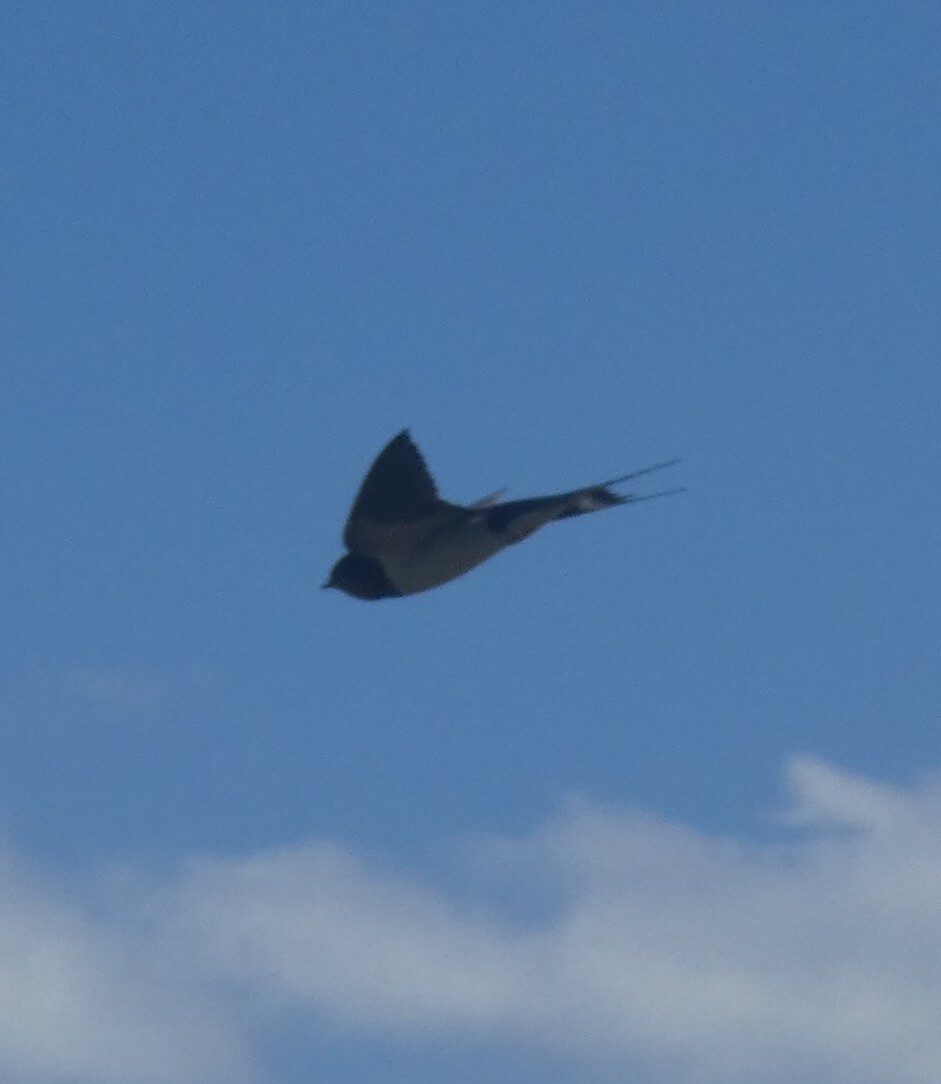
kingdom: Animalia
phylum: Chordata
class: Aves
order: Passeriformes
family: Hirundinidae
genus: Hirundo
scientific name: Hirundo rustica
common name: Barn swallow
